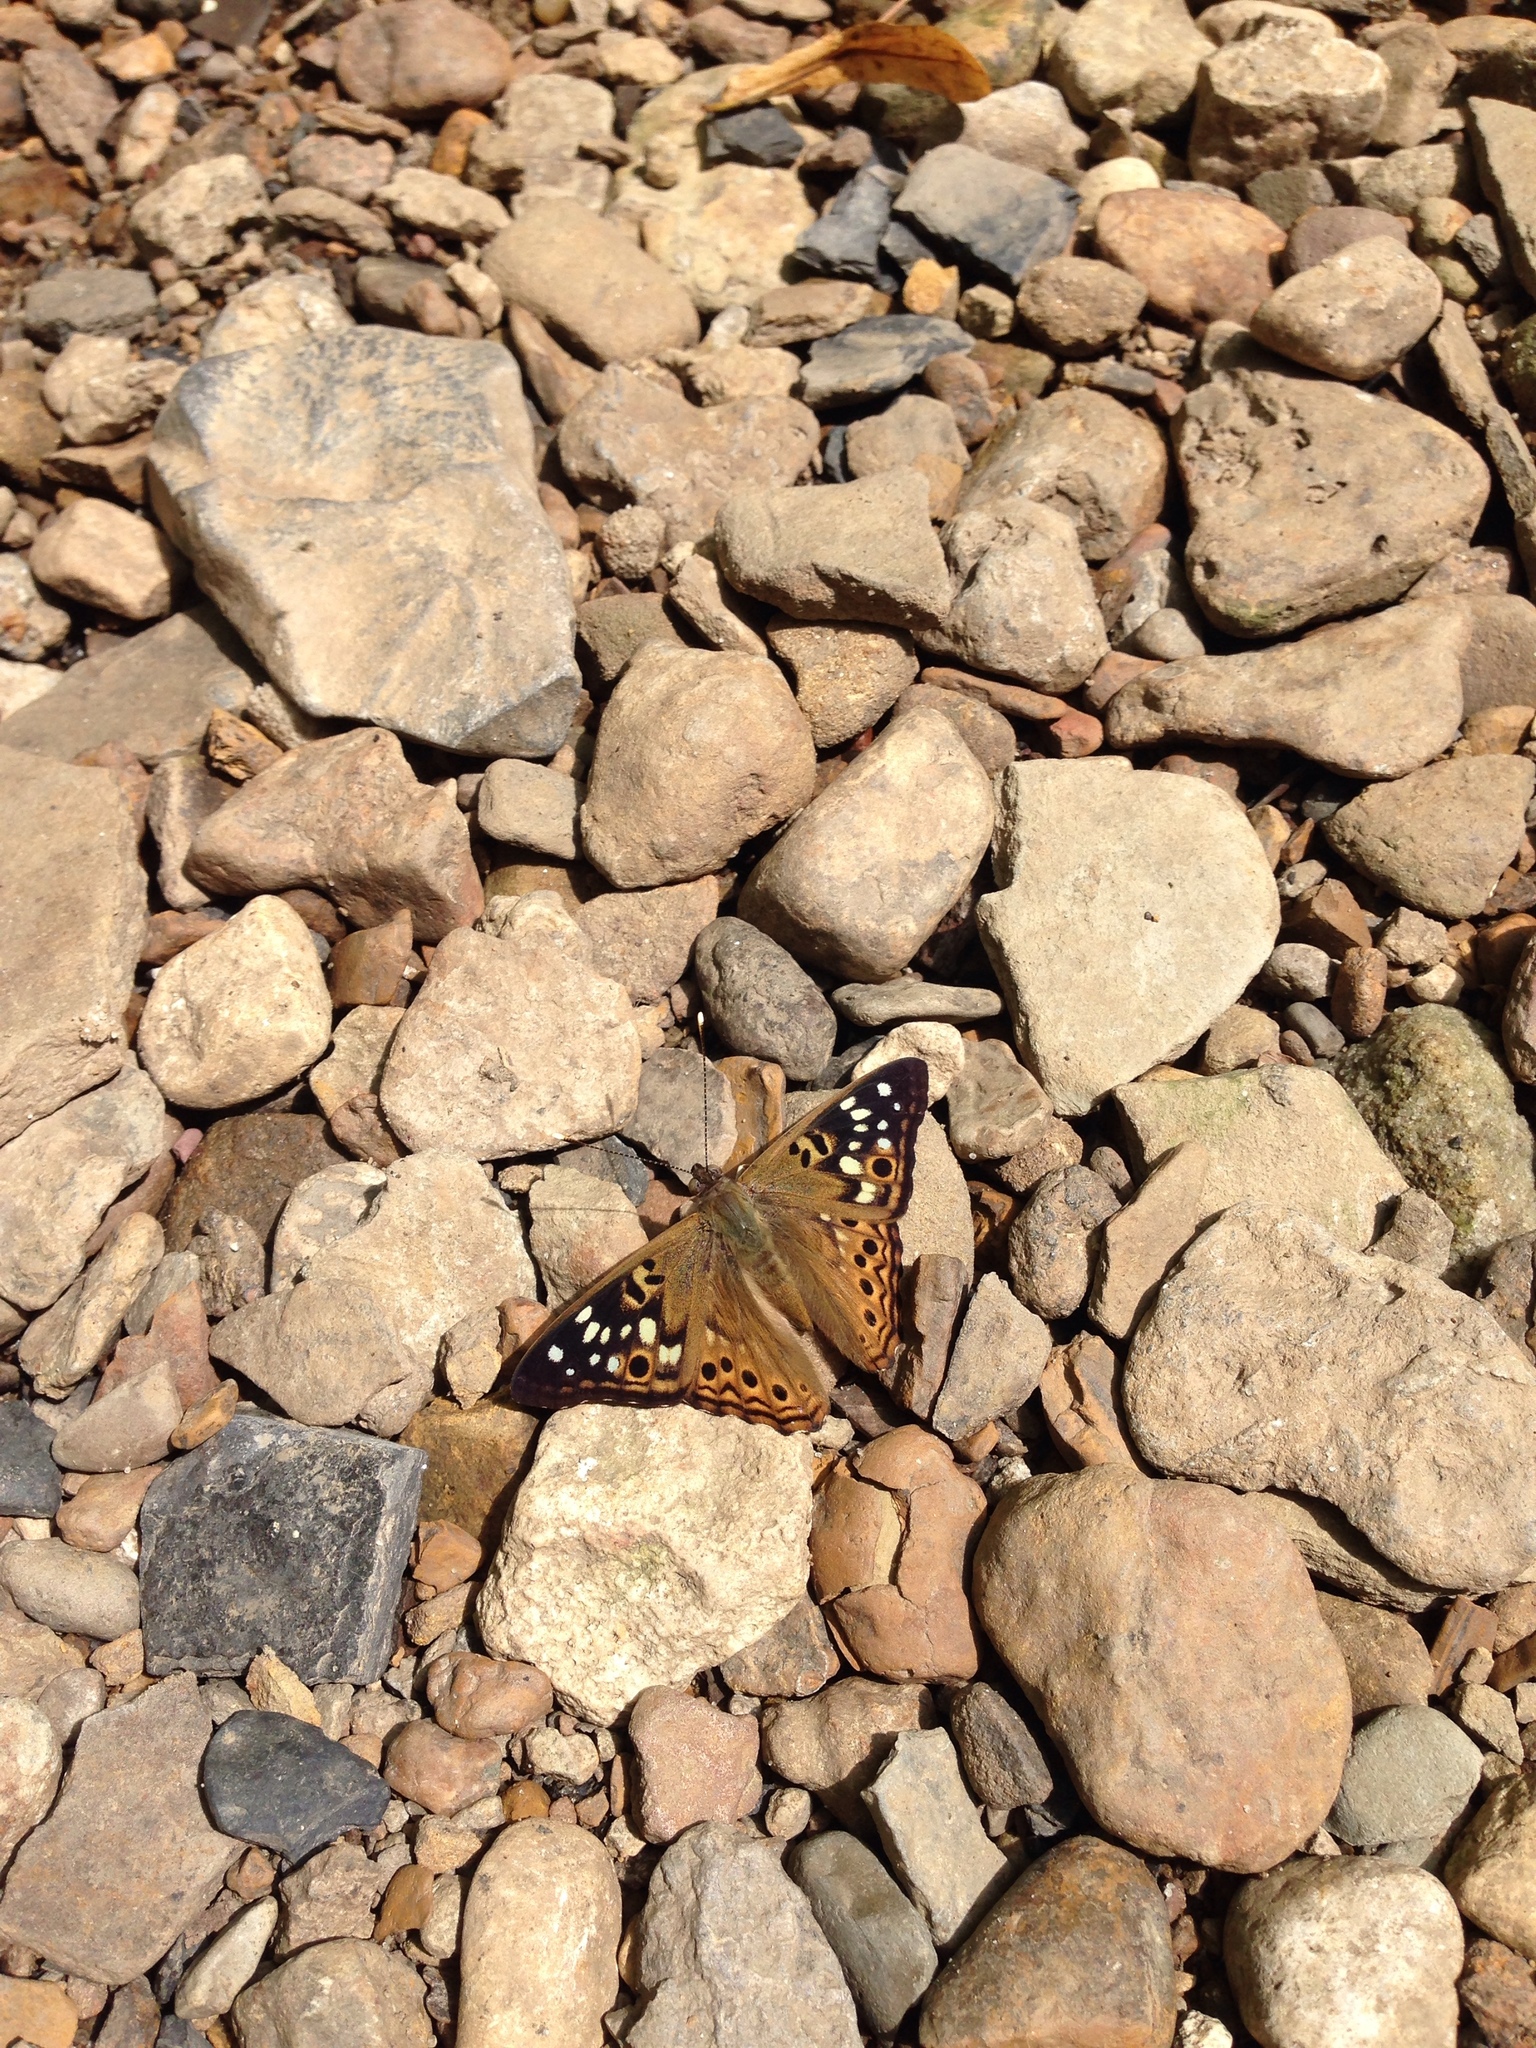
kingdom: Animalia
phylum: Arthropoda
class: Insecta
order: Lepidoptera
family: Nymphalidae
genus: Asterocampa
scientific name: Asterocampa celtis
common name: Hackberry emperor
